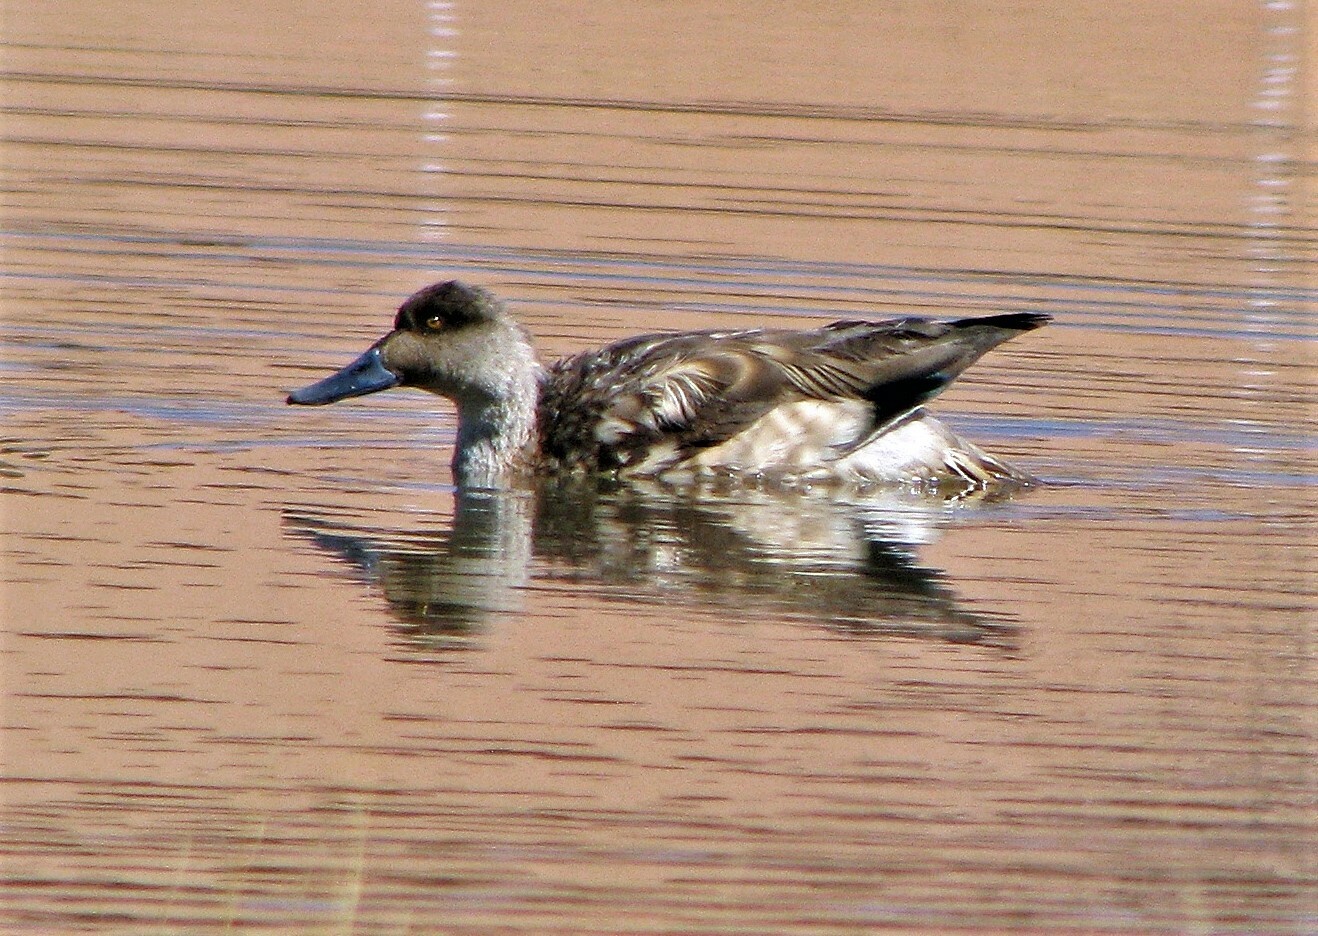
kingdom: Animalia
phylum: Chordata
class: Aves
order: Anseriformes
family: Anatidae
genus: Lophonetta
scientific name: Lophonetta specularioides
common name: Crested duck
